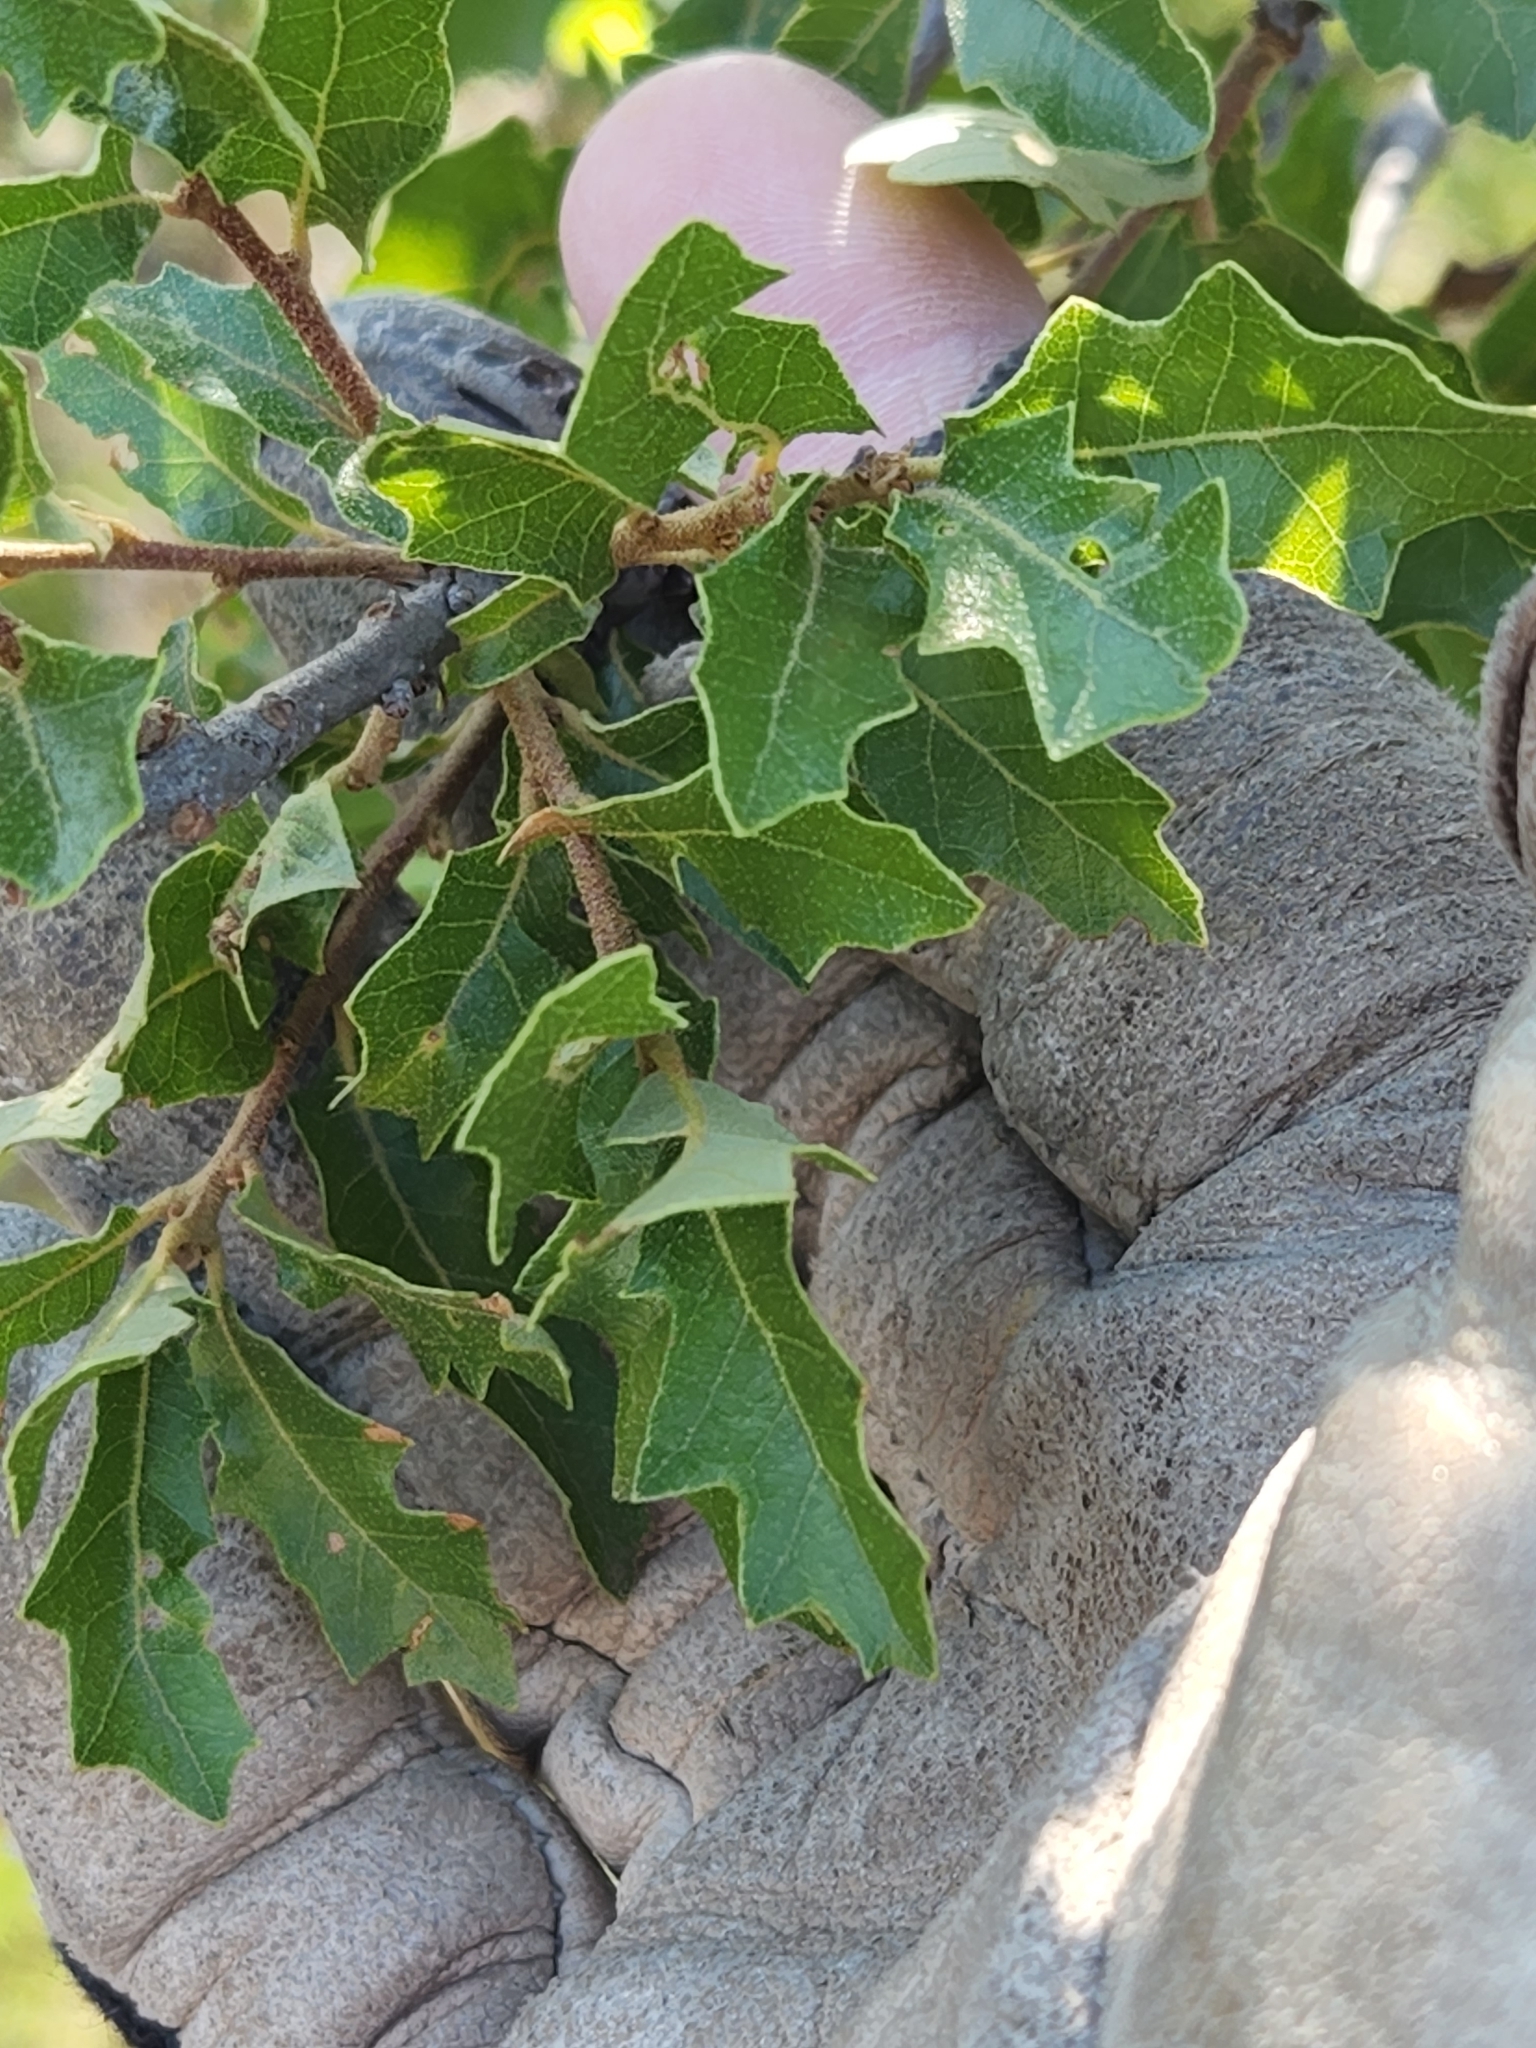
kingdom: Plantae
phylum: Tracheophyta
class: Magnoliopsida
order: Fagales
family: Fagaceae
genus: Quercus
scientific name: Quercus vaseyana
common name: Sandpaper oak
